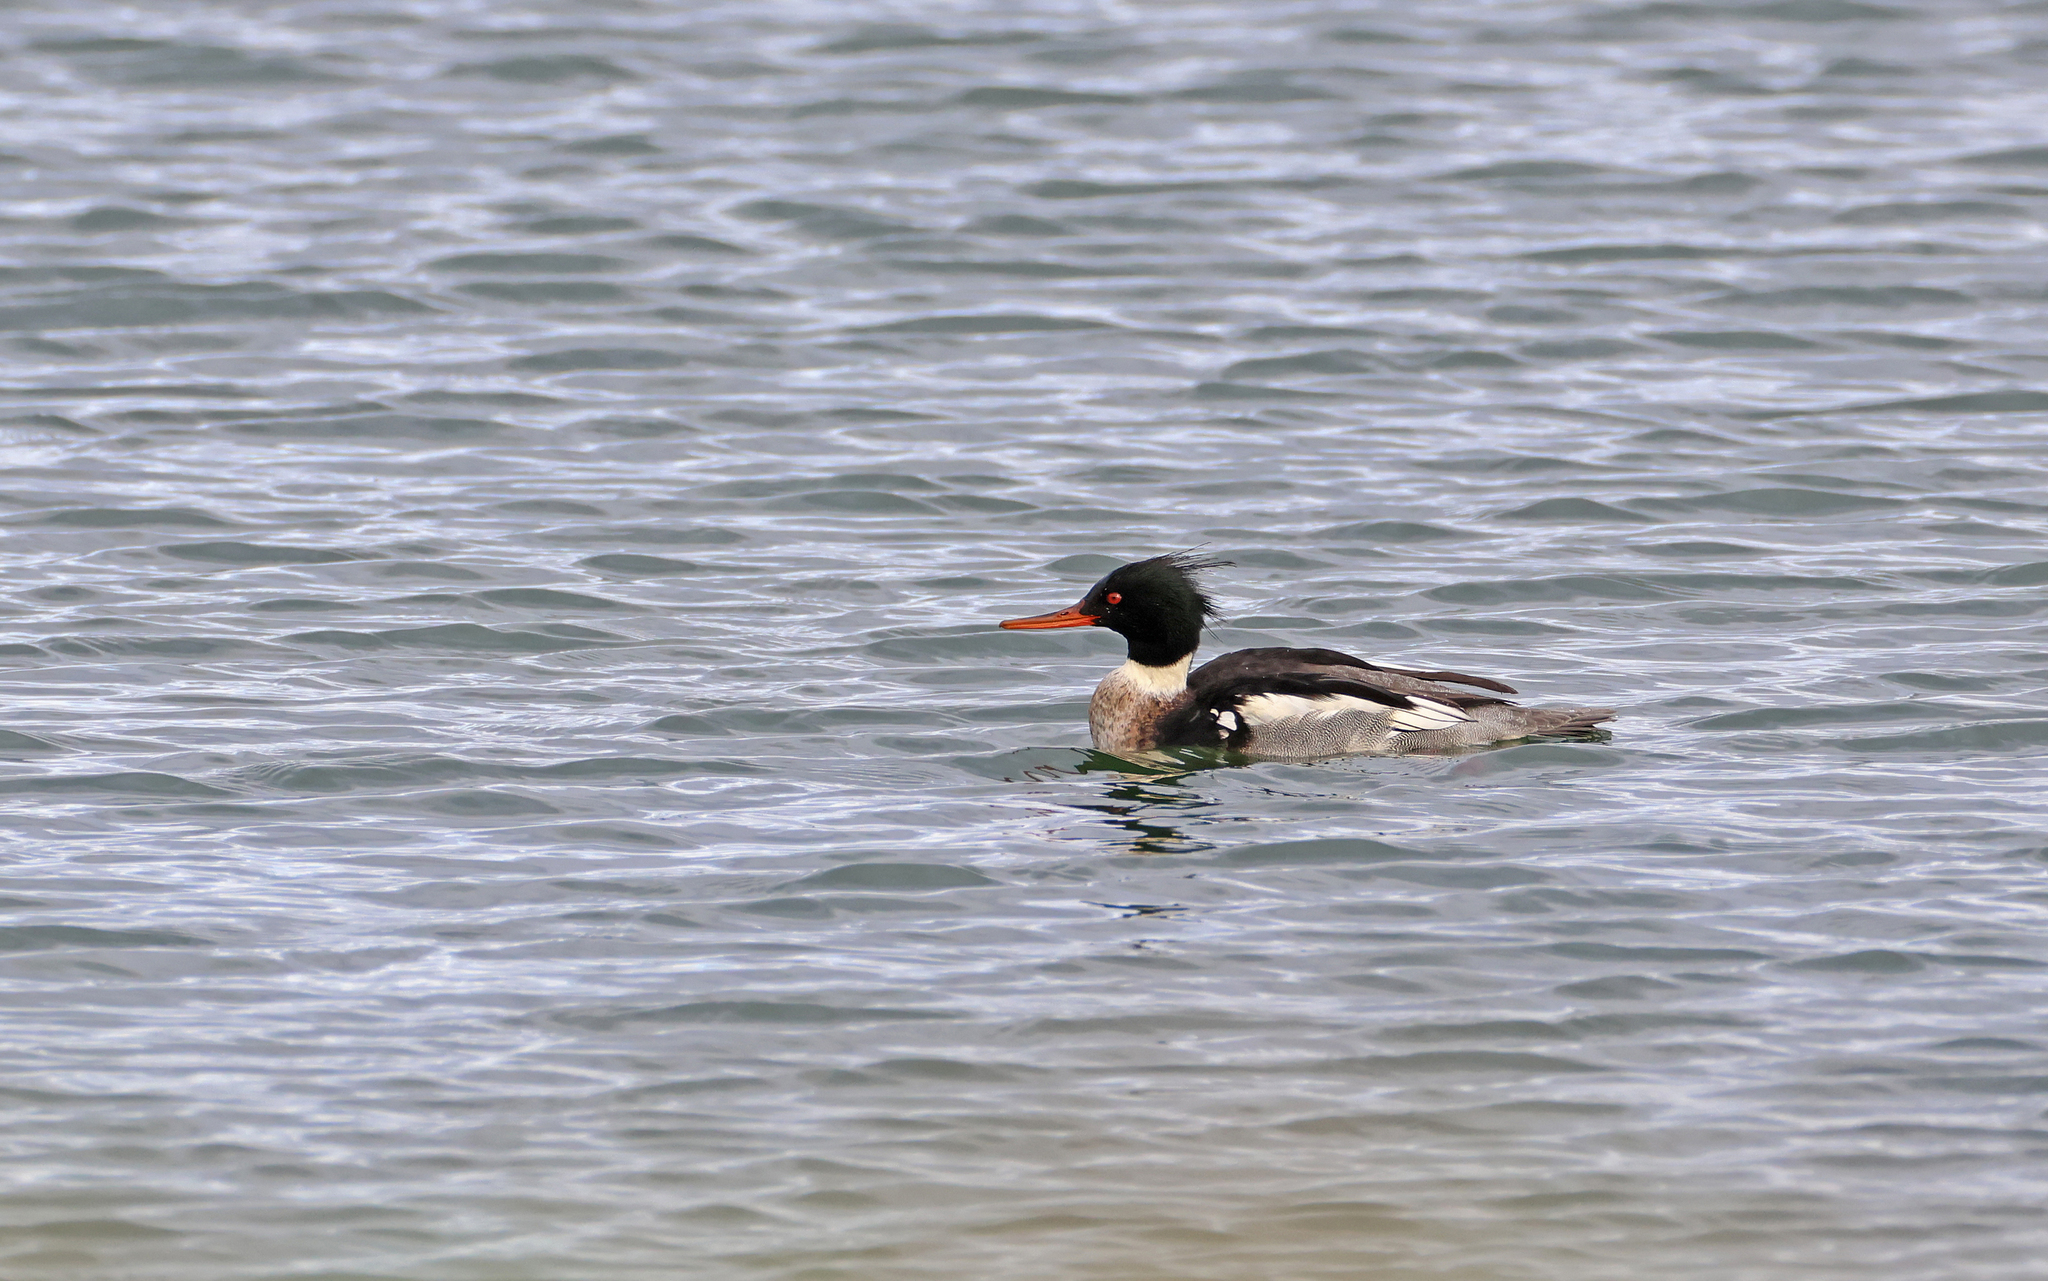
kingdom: Animalia
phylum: Chordata
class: Aves
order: Anseriformes
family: Anatidae
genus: Mergus
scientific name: Mergus serrator
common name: Red-breasted merganser
